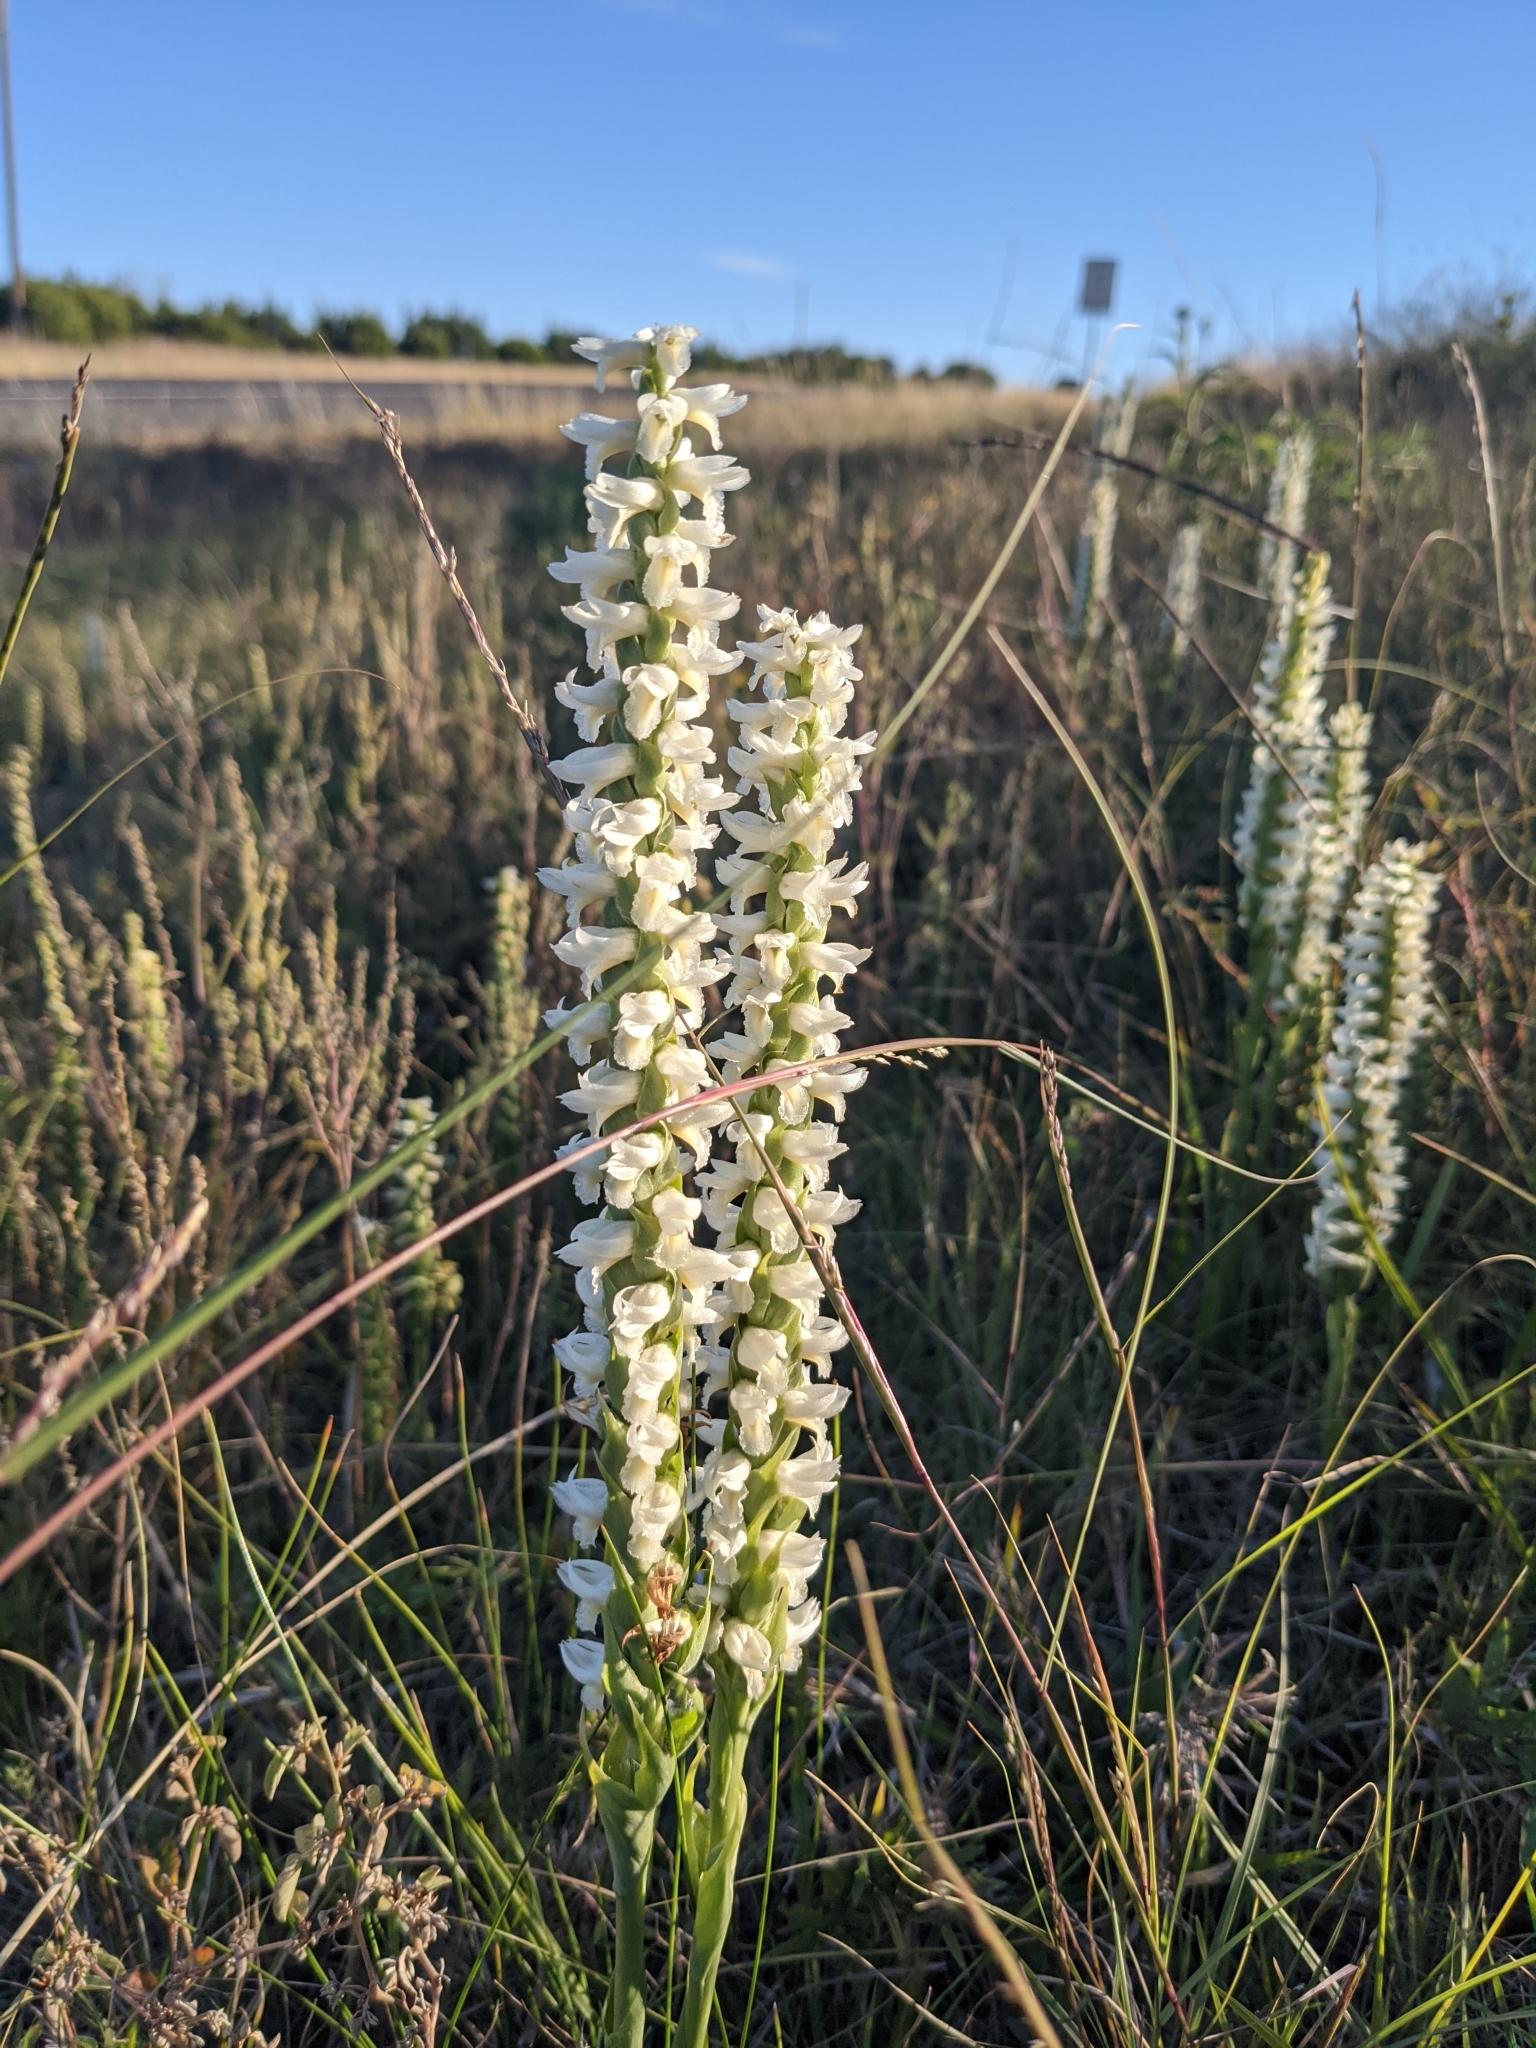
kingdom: Plantae
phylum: Tracheophyta
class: Liliopsida
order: Asparagales
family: Orchidaceae
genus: Spiranthes
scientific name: Spiranthes magnicamporum
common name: Great plains ladies'-tresses
